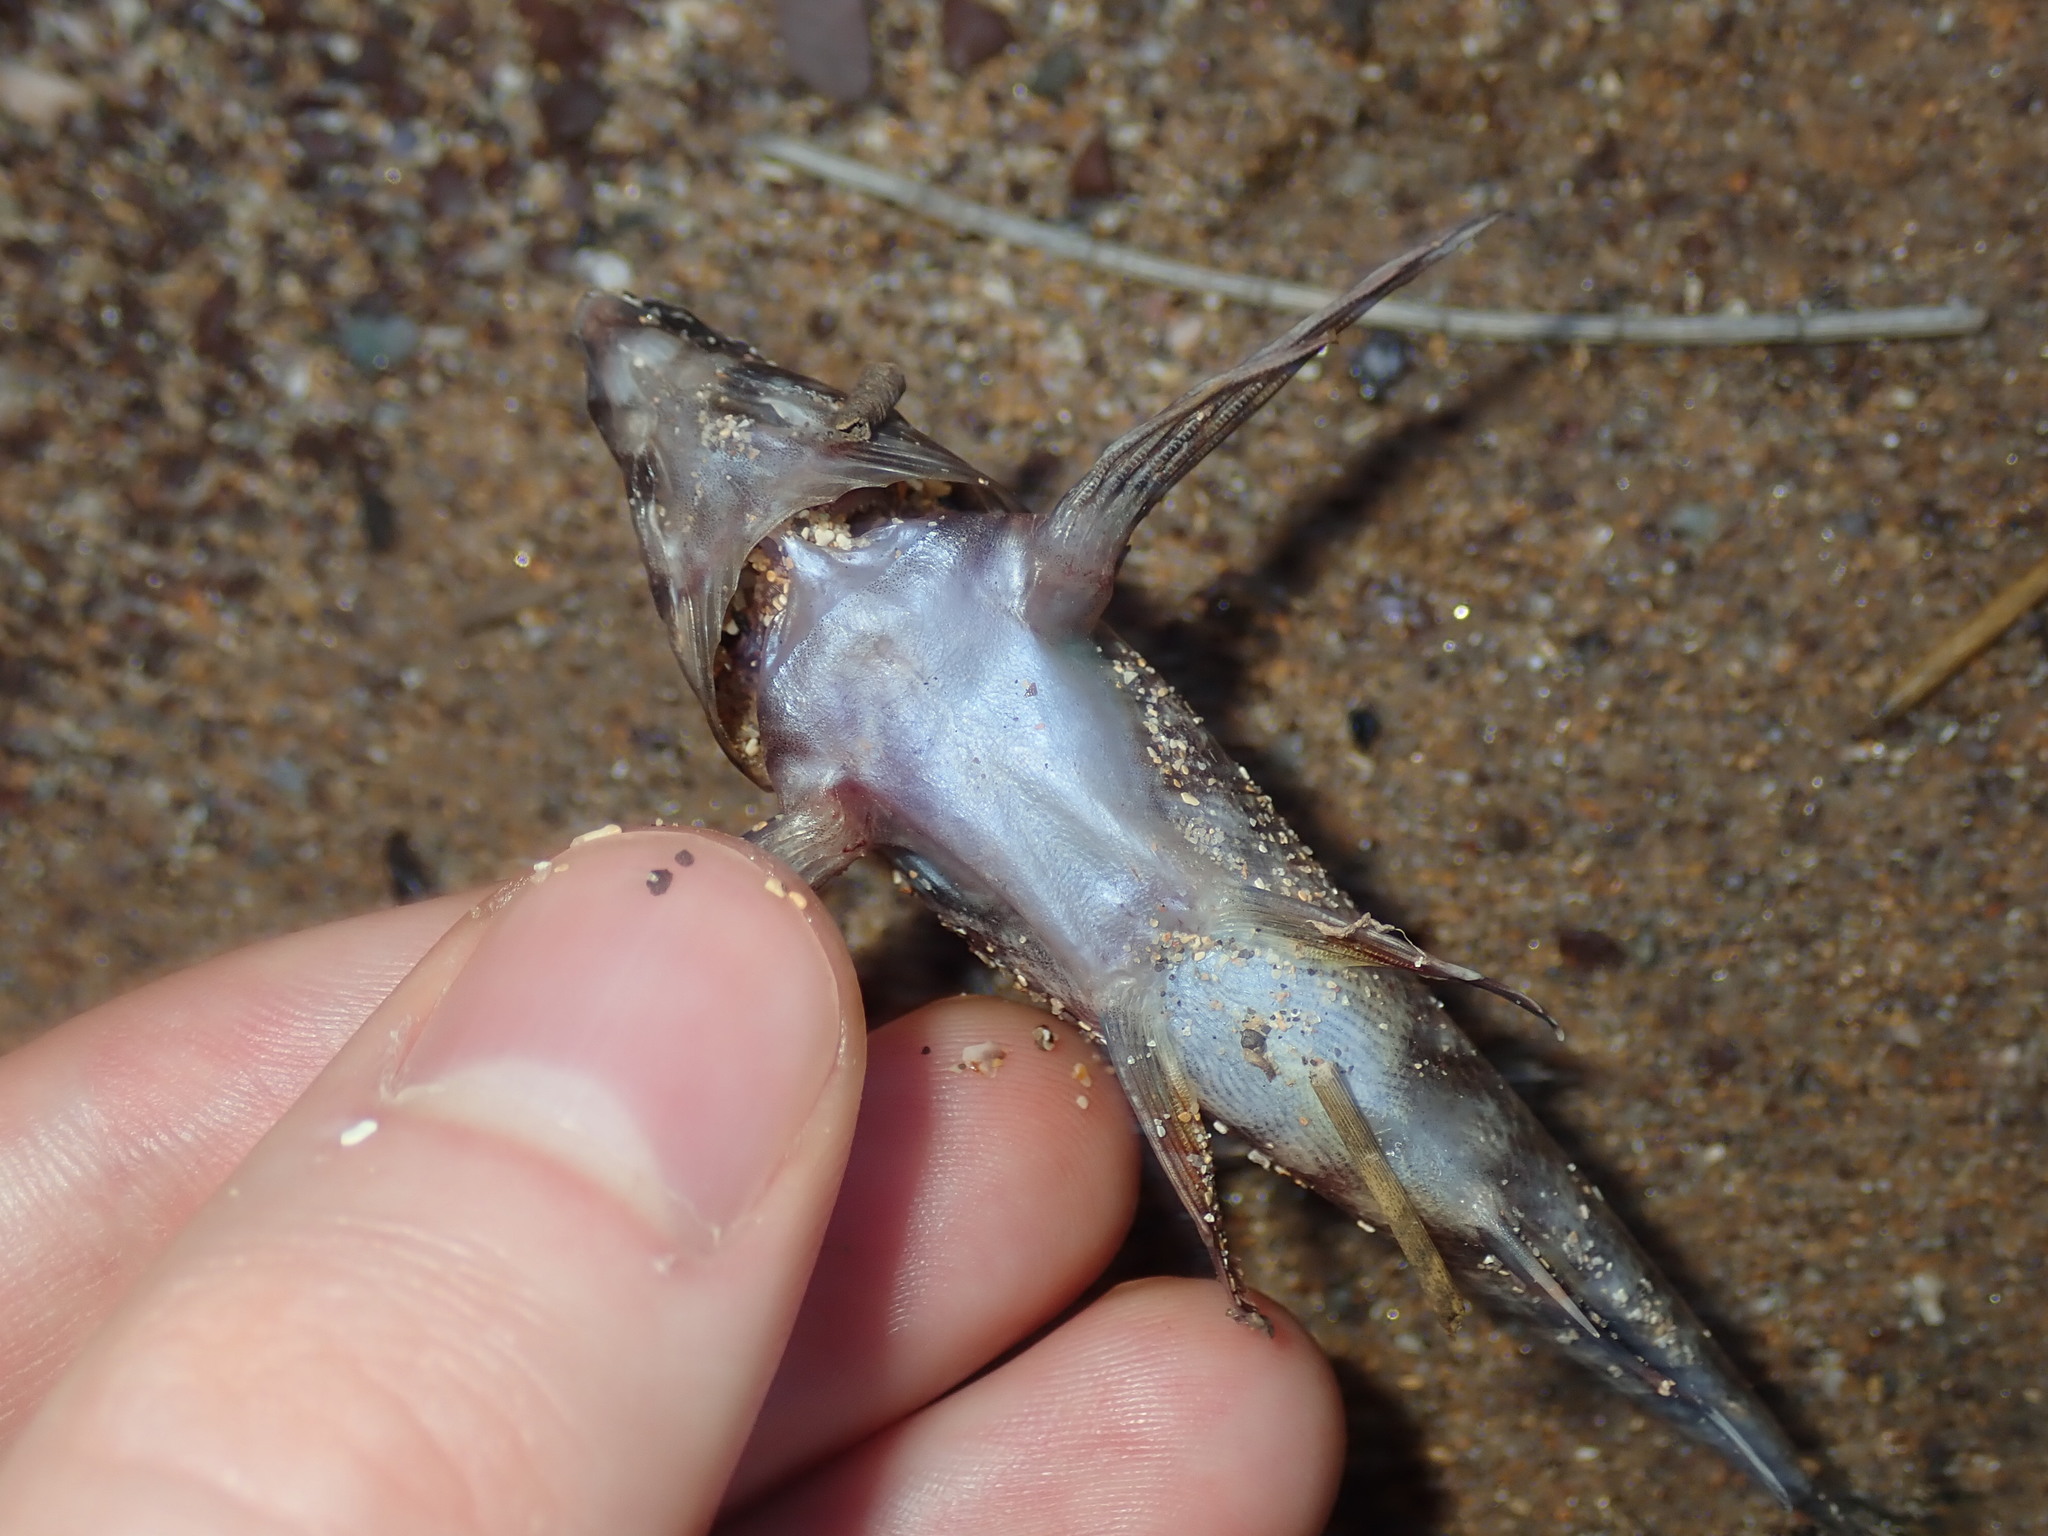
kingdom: Animalia
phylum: Chordata
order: Perciformes
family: Chironemidae
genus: Chironemus
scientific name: Chironemus marmoratus
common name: Kelpfish
